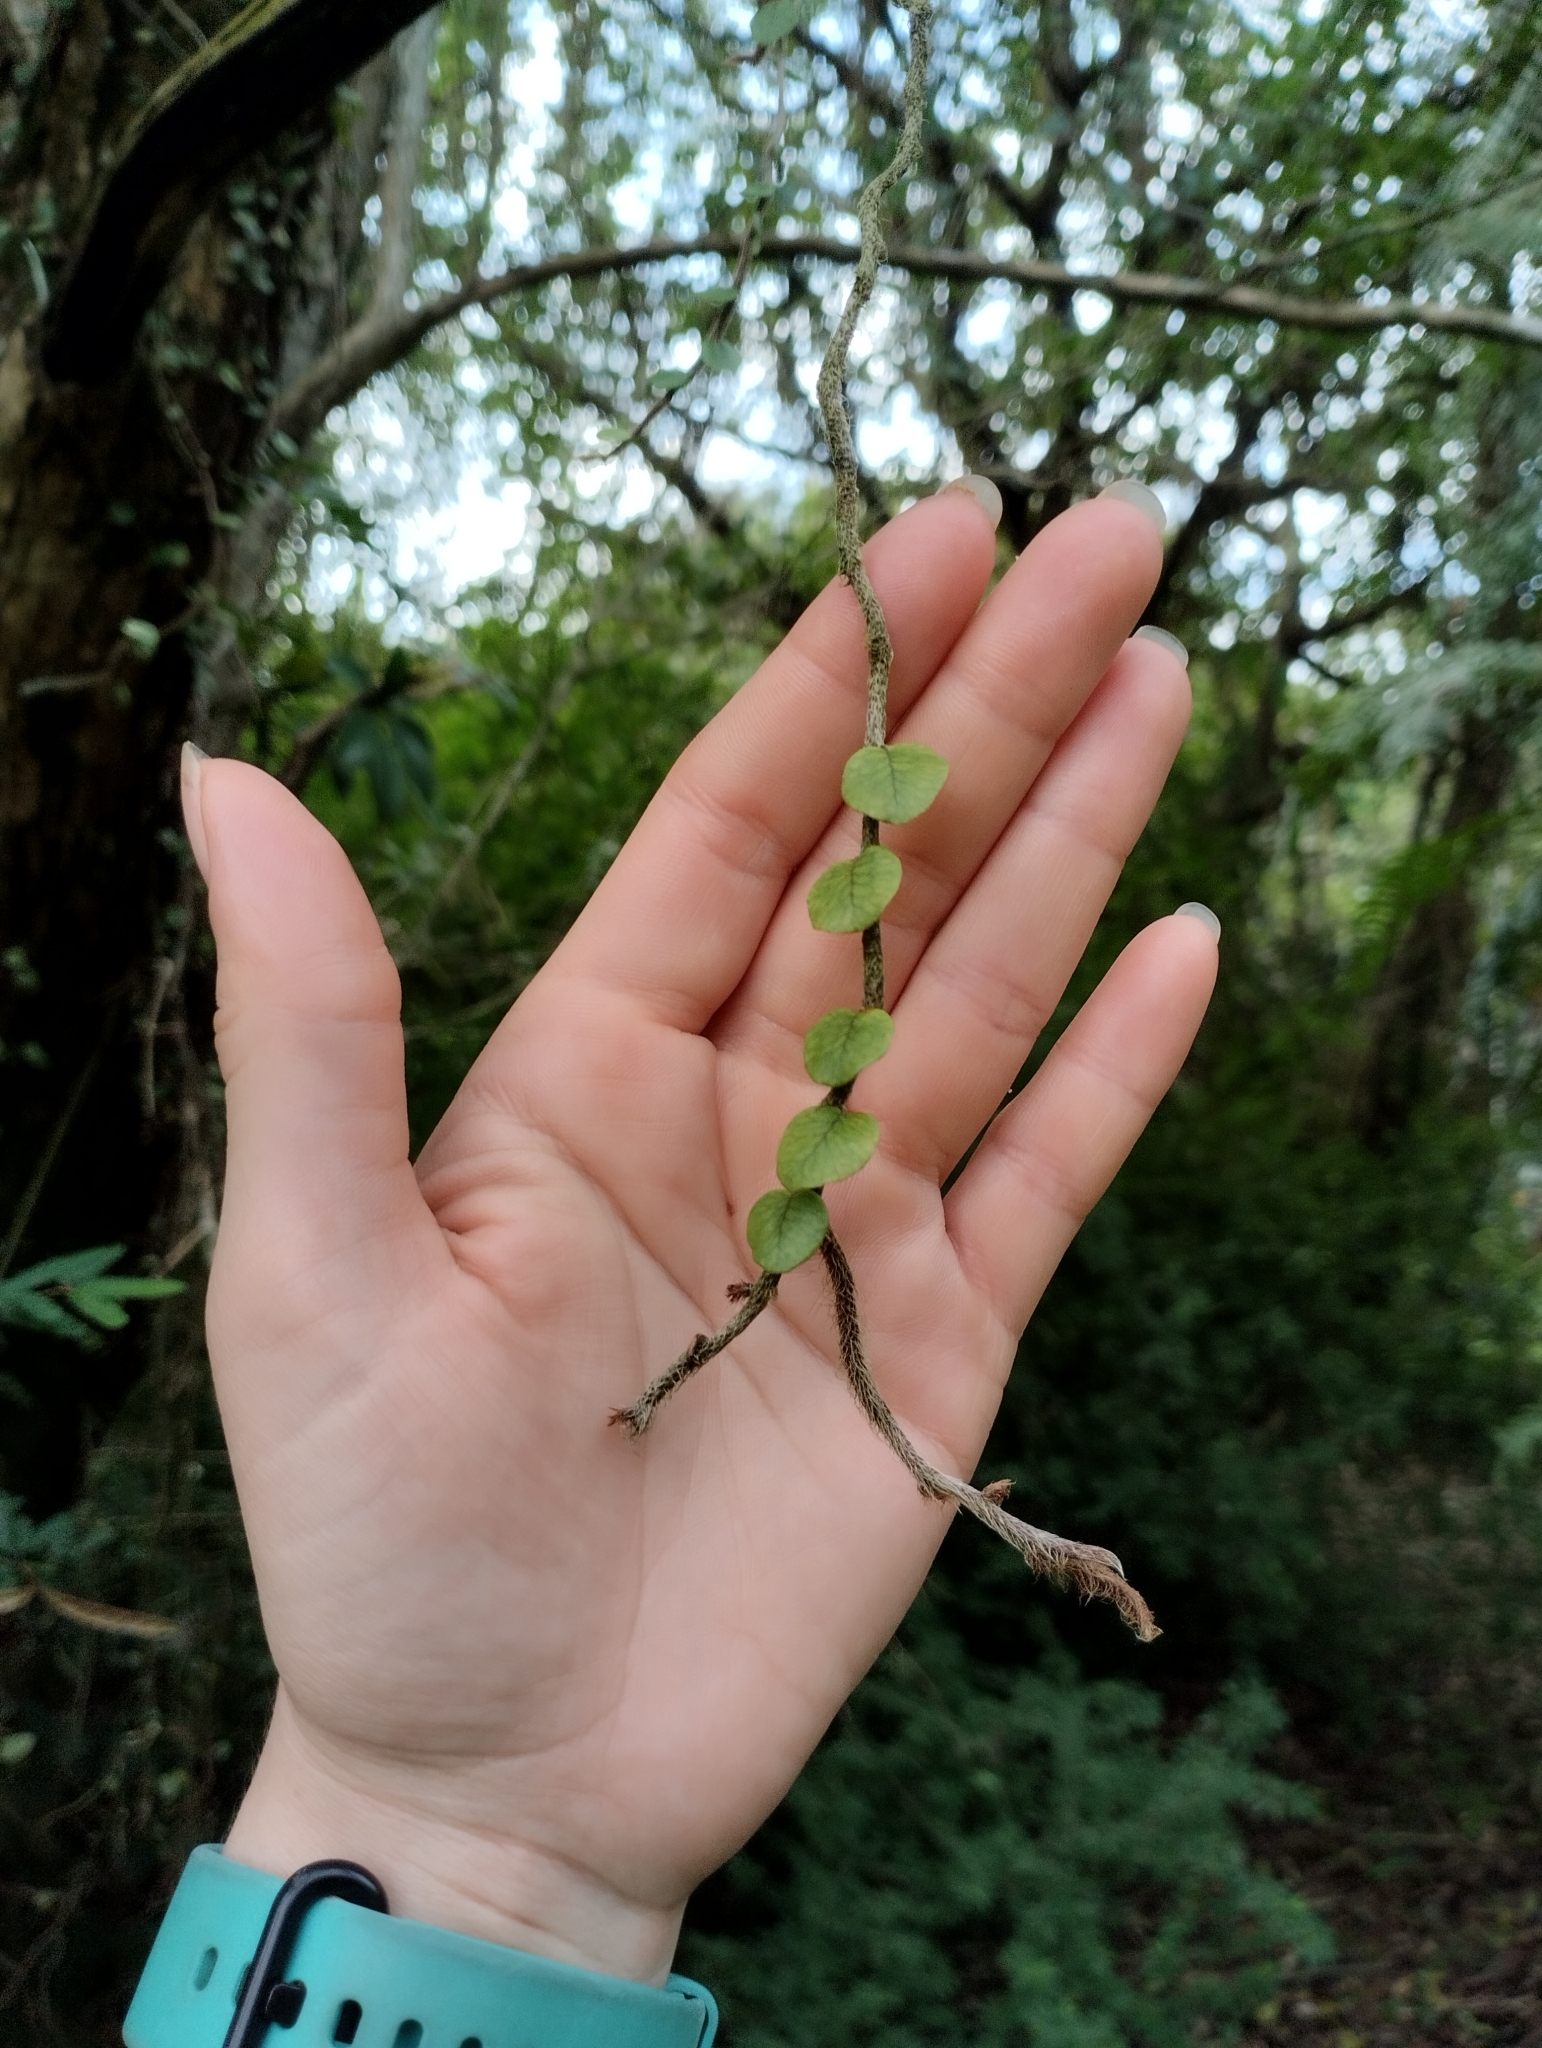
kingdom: Plantae
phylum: Tracheophyta
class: Polypodiopsida
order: Polypodiales
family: Polypodiaceae
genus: Microgramma
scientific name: Microgramma vaccinifolia
